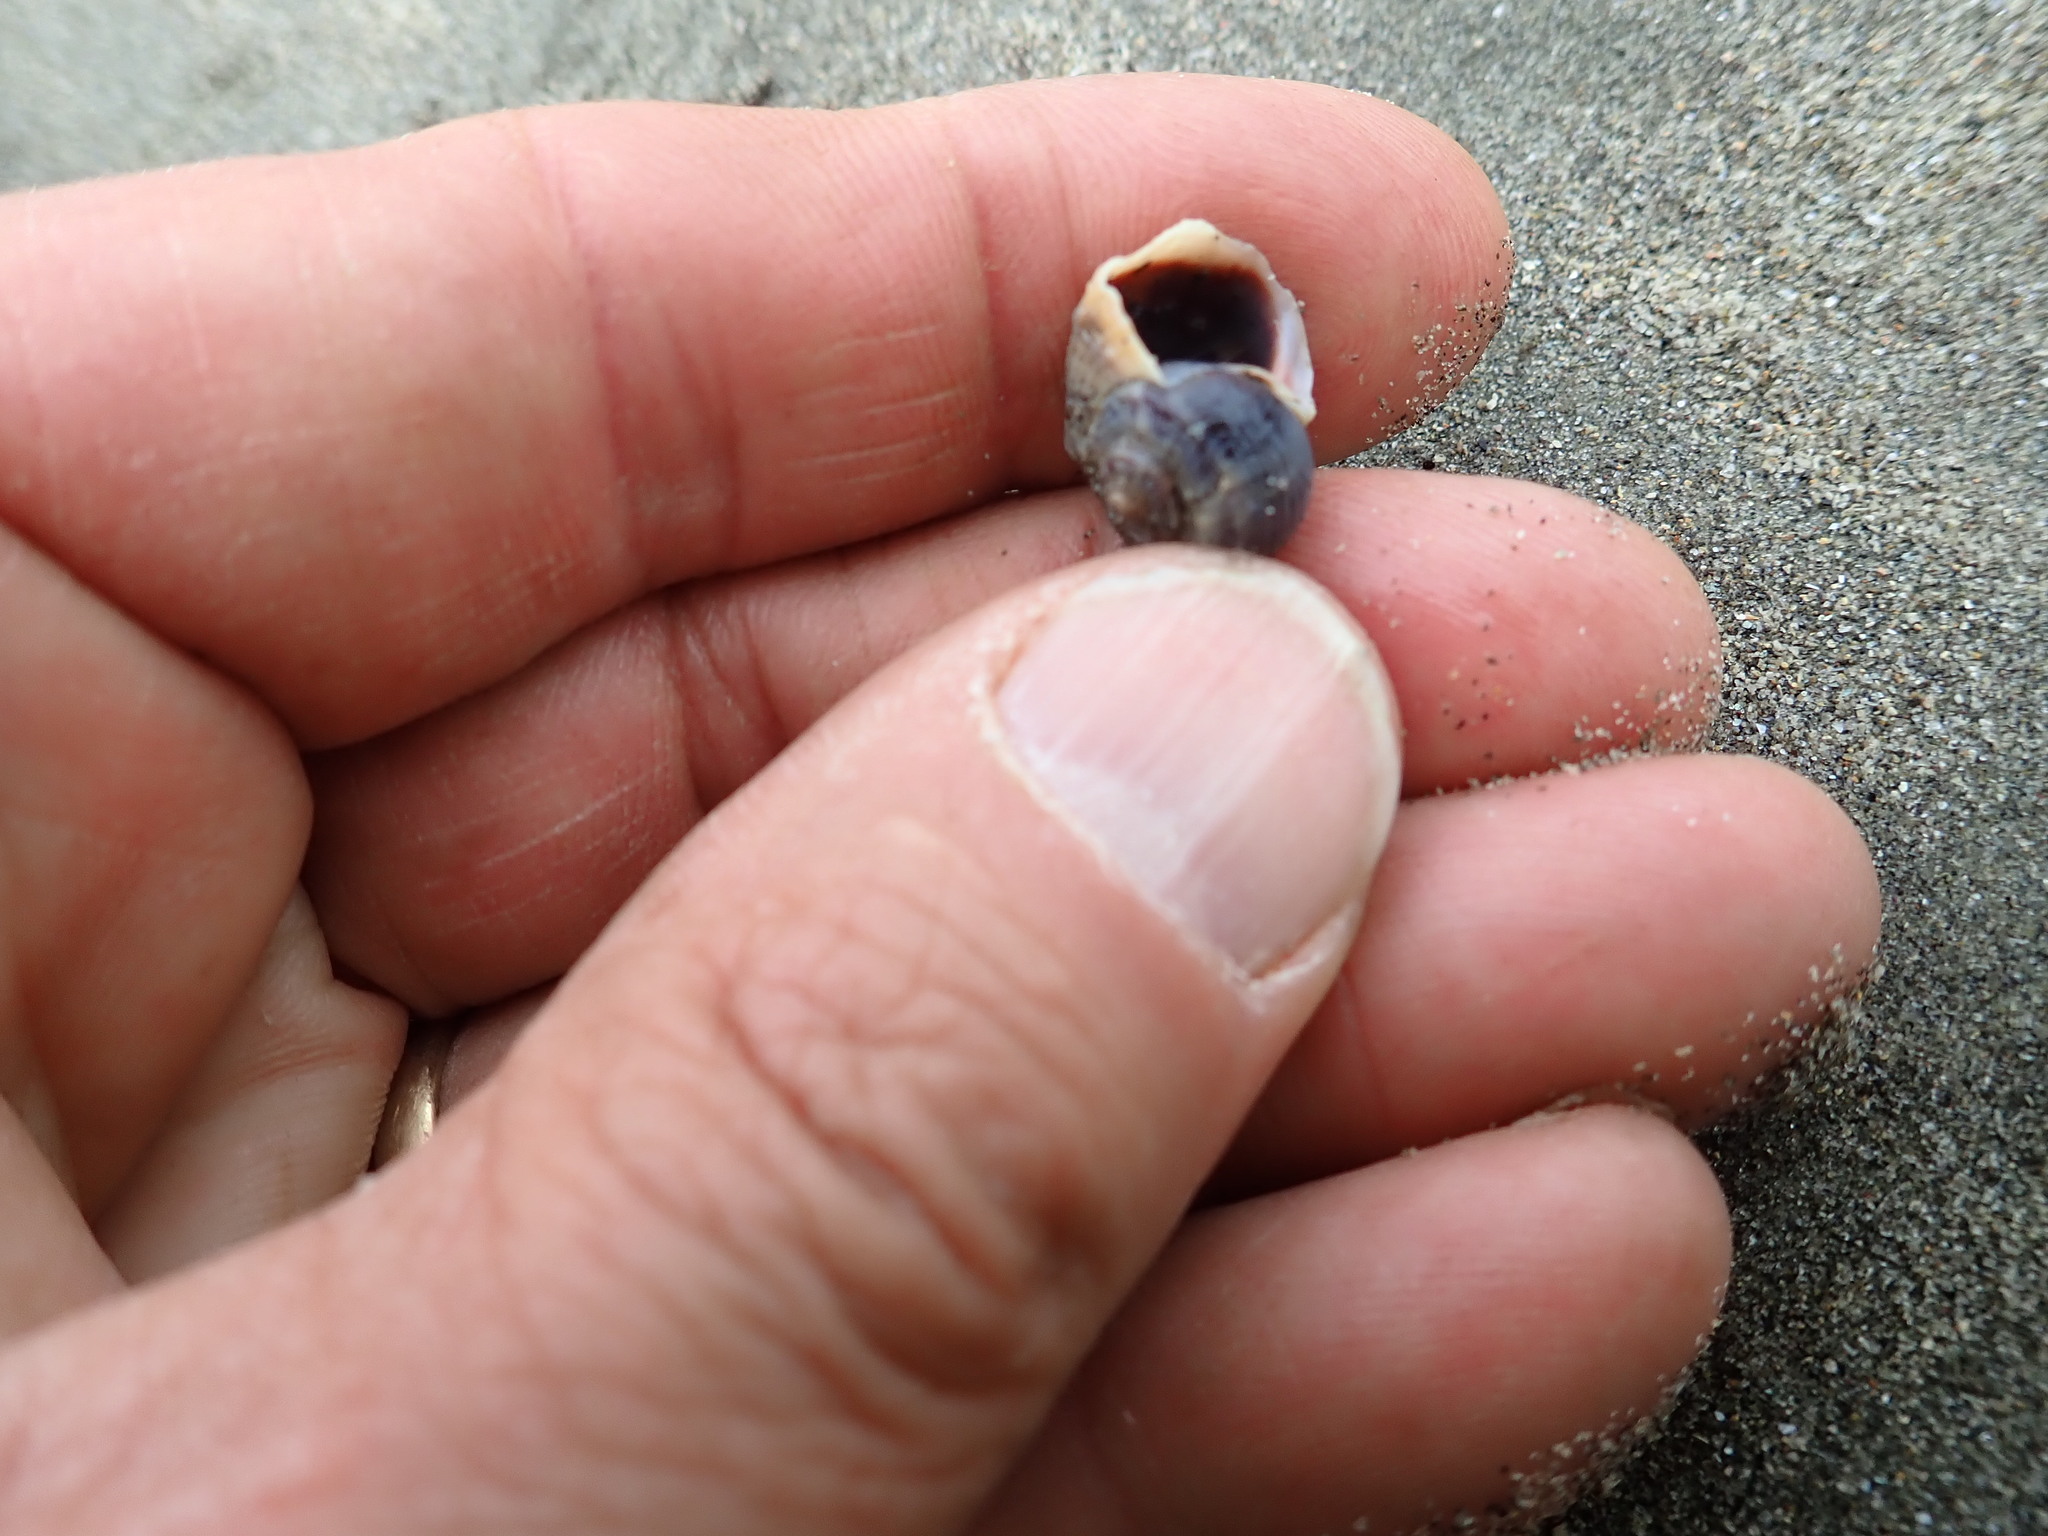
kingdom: Animalia
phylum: Mollusca
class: Gastropoda
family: Amphibolidae
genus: Amphibola
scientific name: Amphibola crenata
